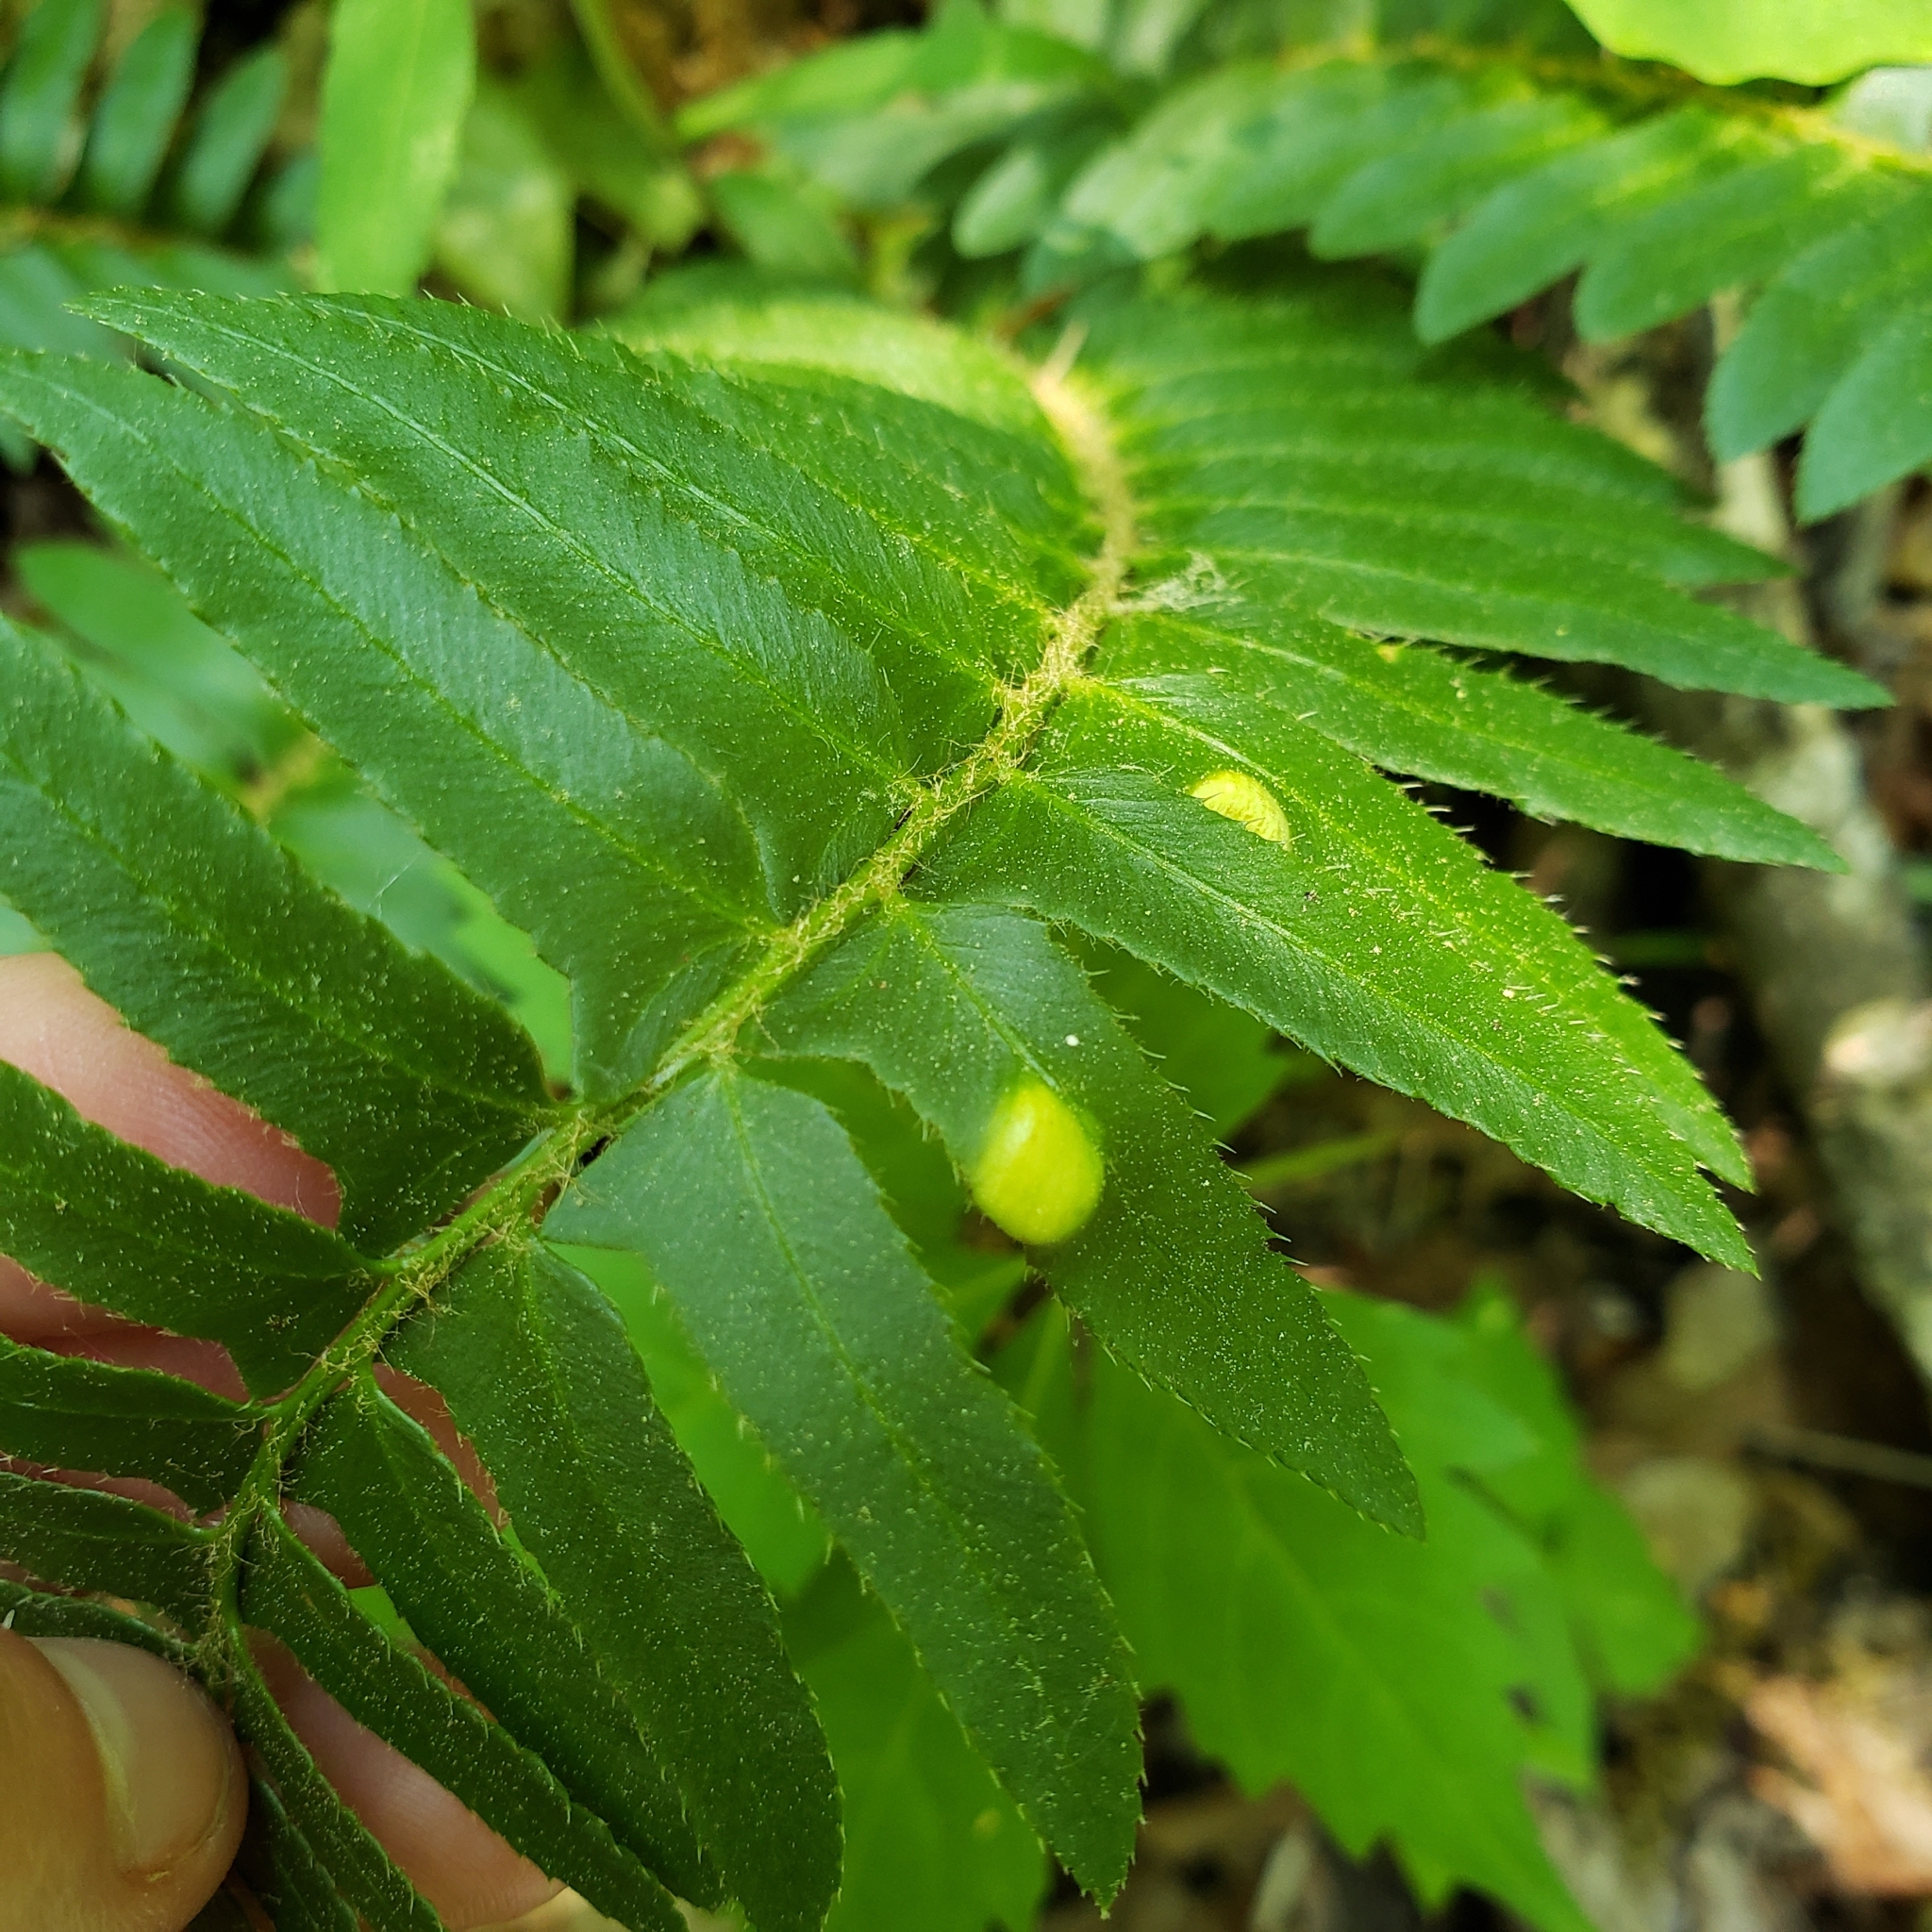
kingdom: Fungi
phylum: Ascomycota
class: Taphrinomycetes
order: Taphrinales
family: Taphrinaceae
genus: Taphrina
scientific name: Taphrina polystichi
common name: Christmas fern leaf curl
